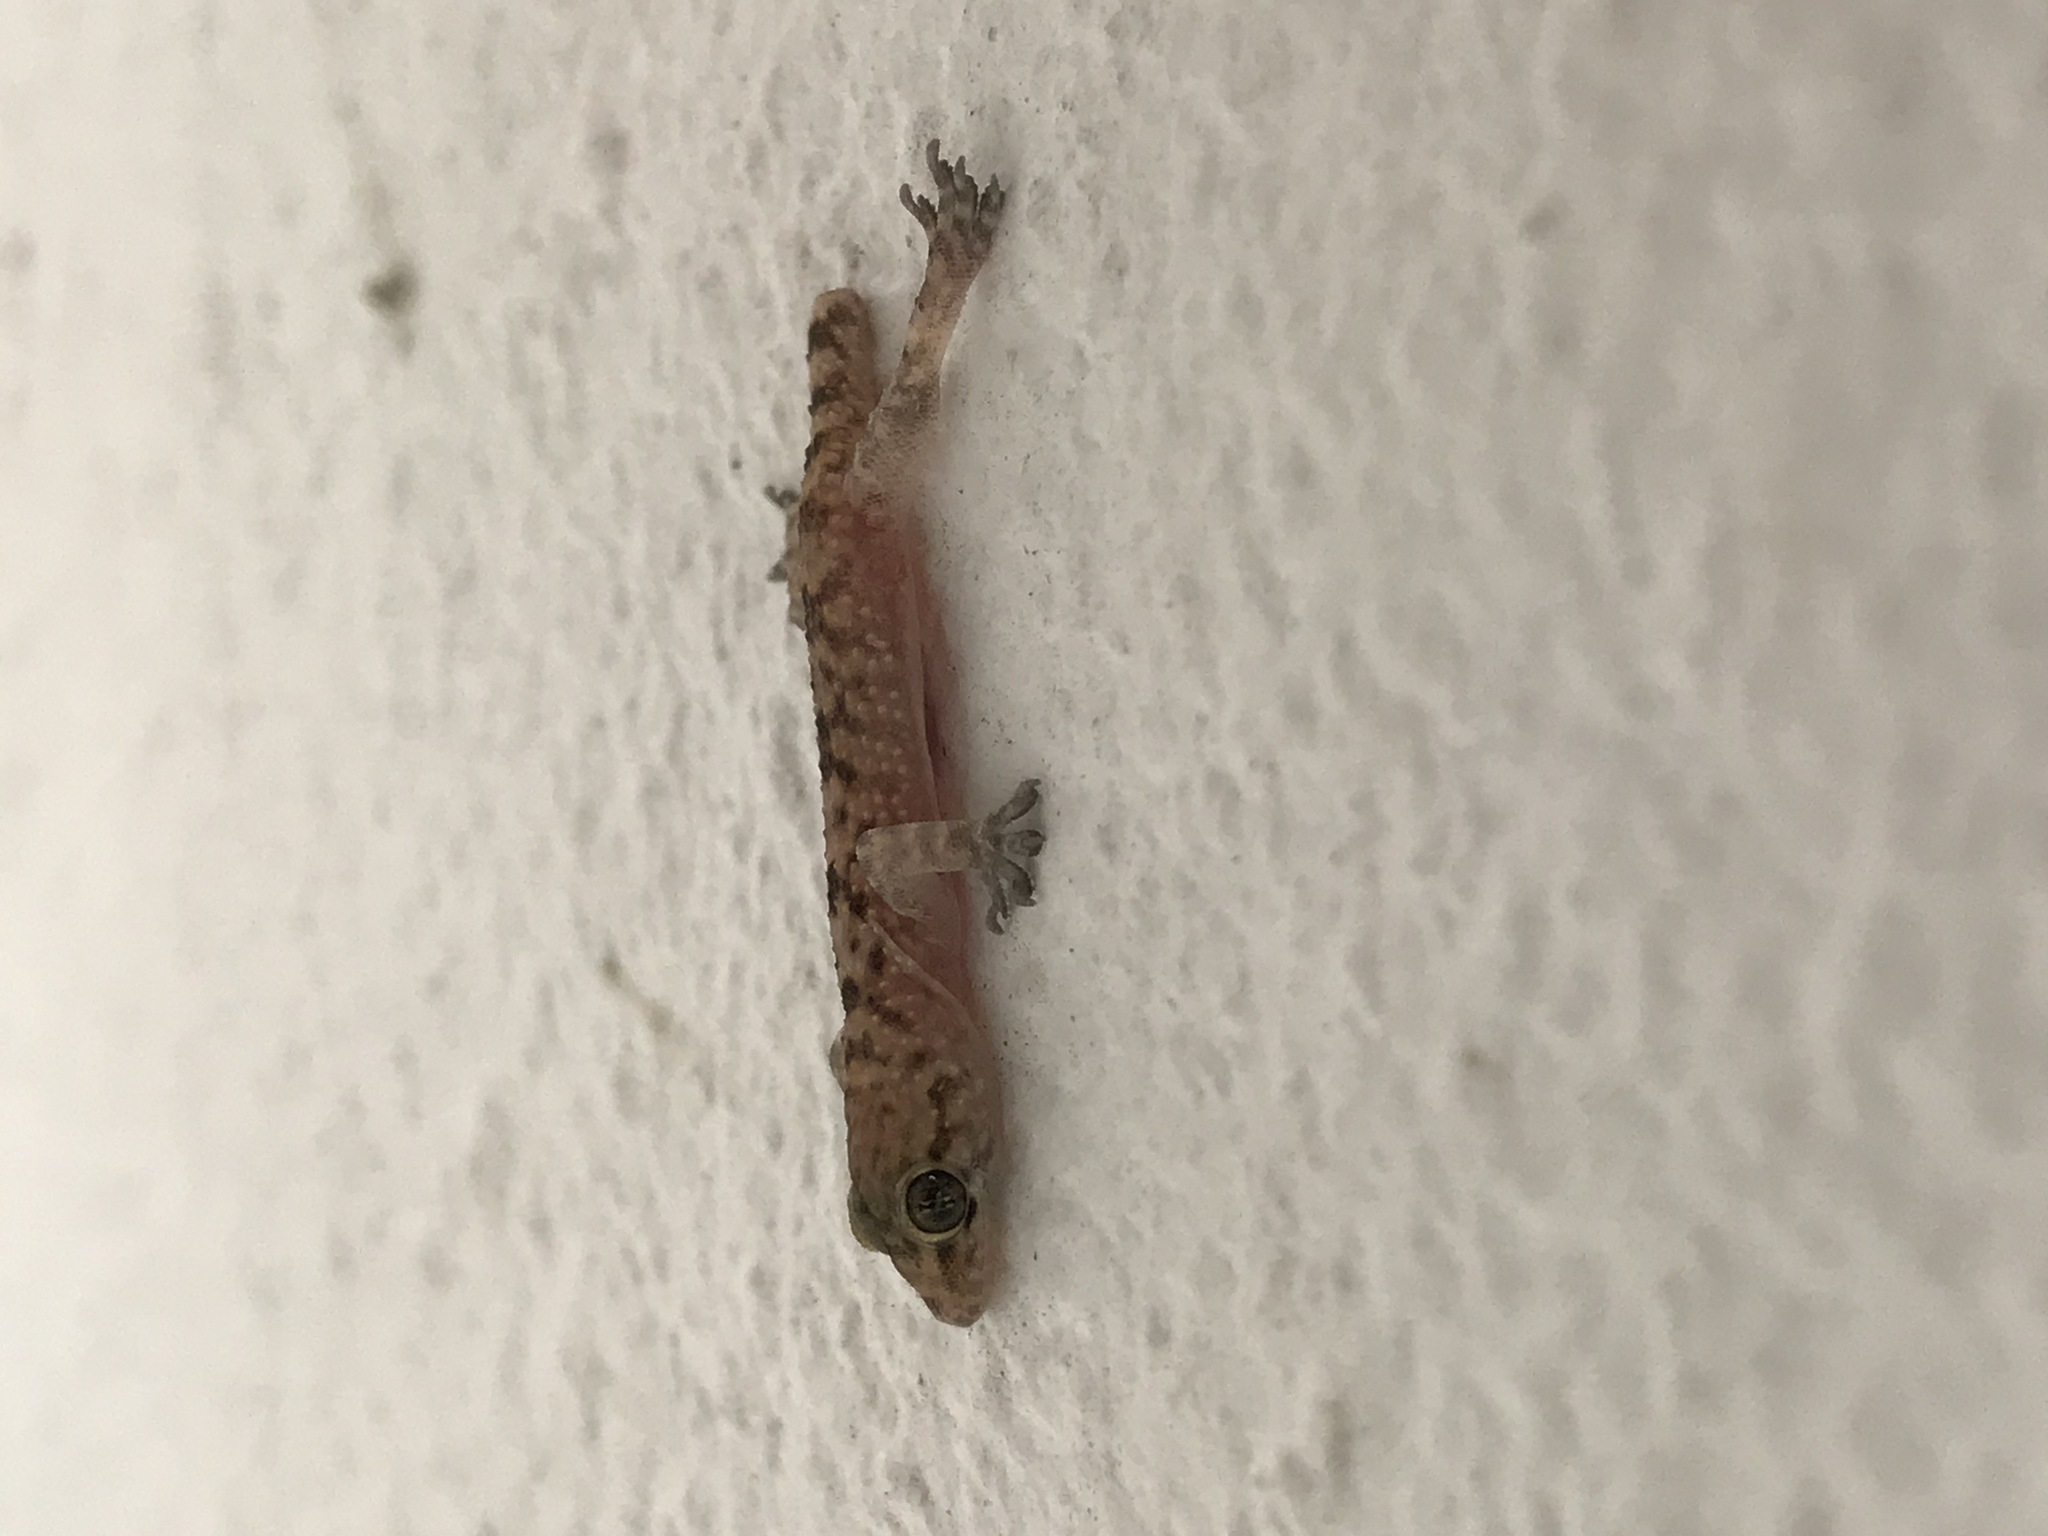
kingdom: Animalia
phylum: Chordata
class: Squamata
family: Gekkonidae
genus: Hemidactylus
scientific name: Hemidactylus turcicus
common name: Turkish gecko
